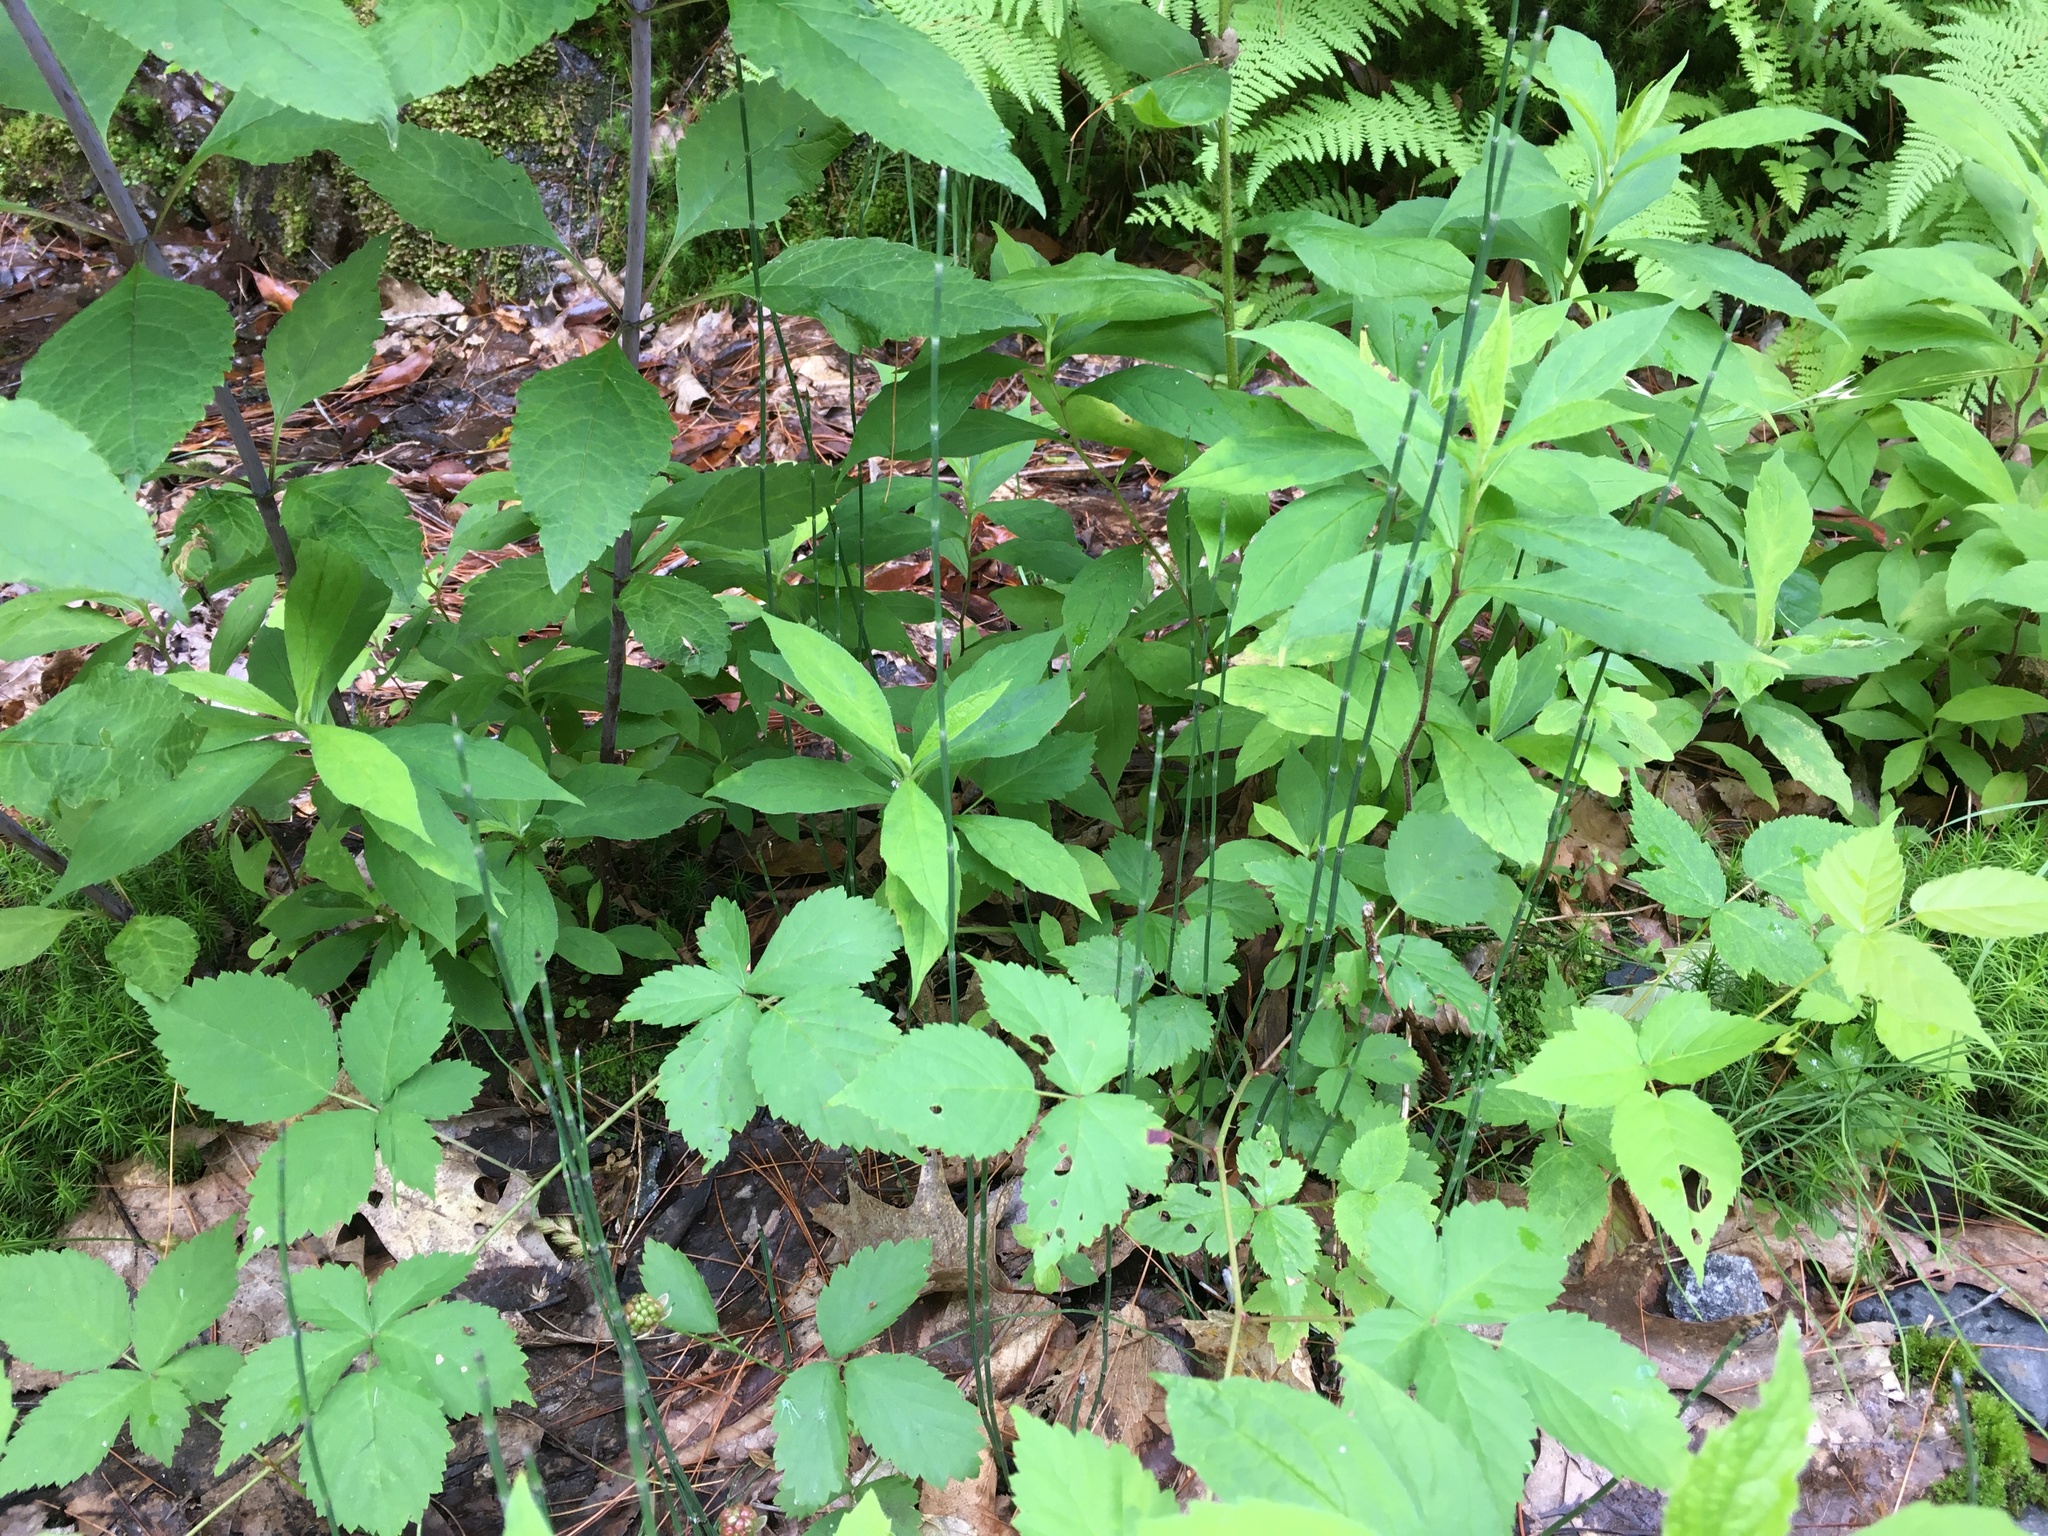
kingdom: Plantae
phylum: Tracheophyta
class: Polypodiopsida
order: Equisetales
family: Equisetaceae
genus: Equisetum
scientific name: Equisetum variegatum
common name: Variegated horsetail
